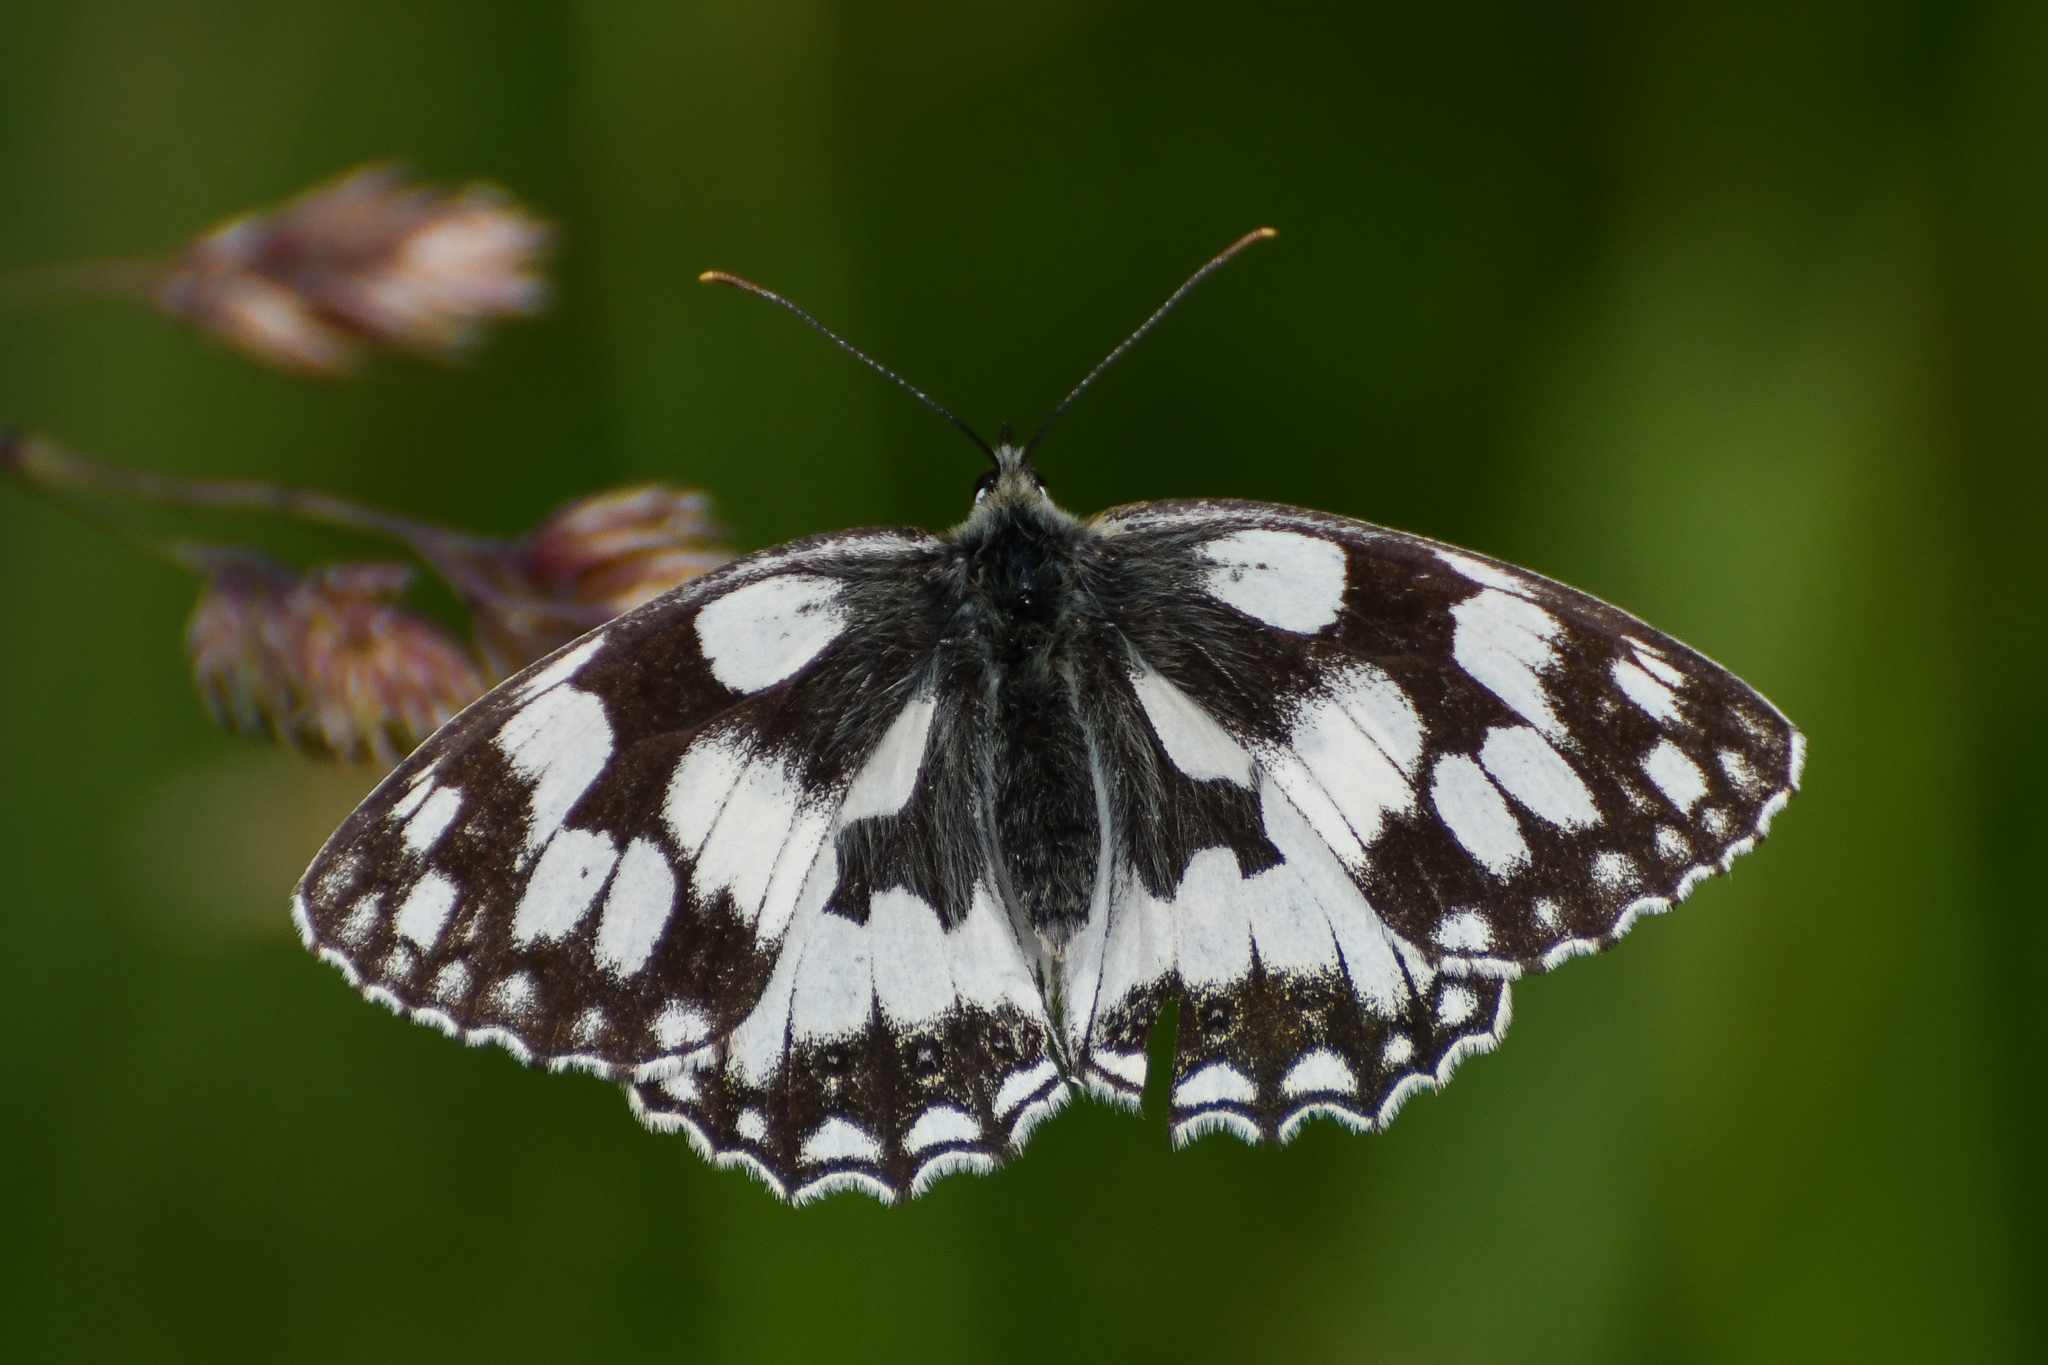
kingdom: Animalia
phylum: Arthropoda
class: Insecta
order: Lepidoptera
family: Nymphalidae
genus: Melanargia
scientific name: Melanargia galathea
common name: Marbled white
